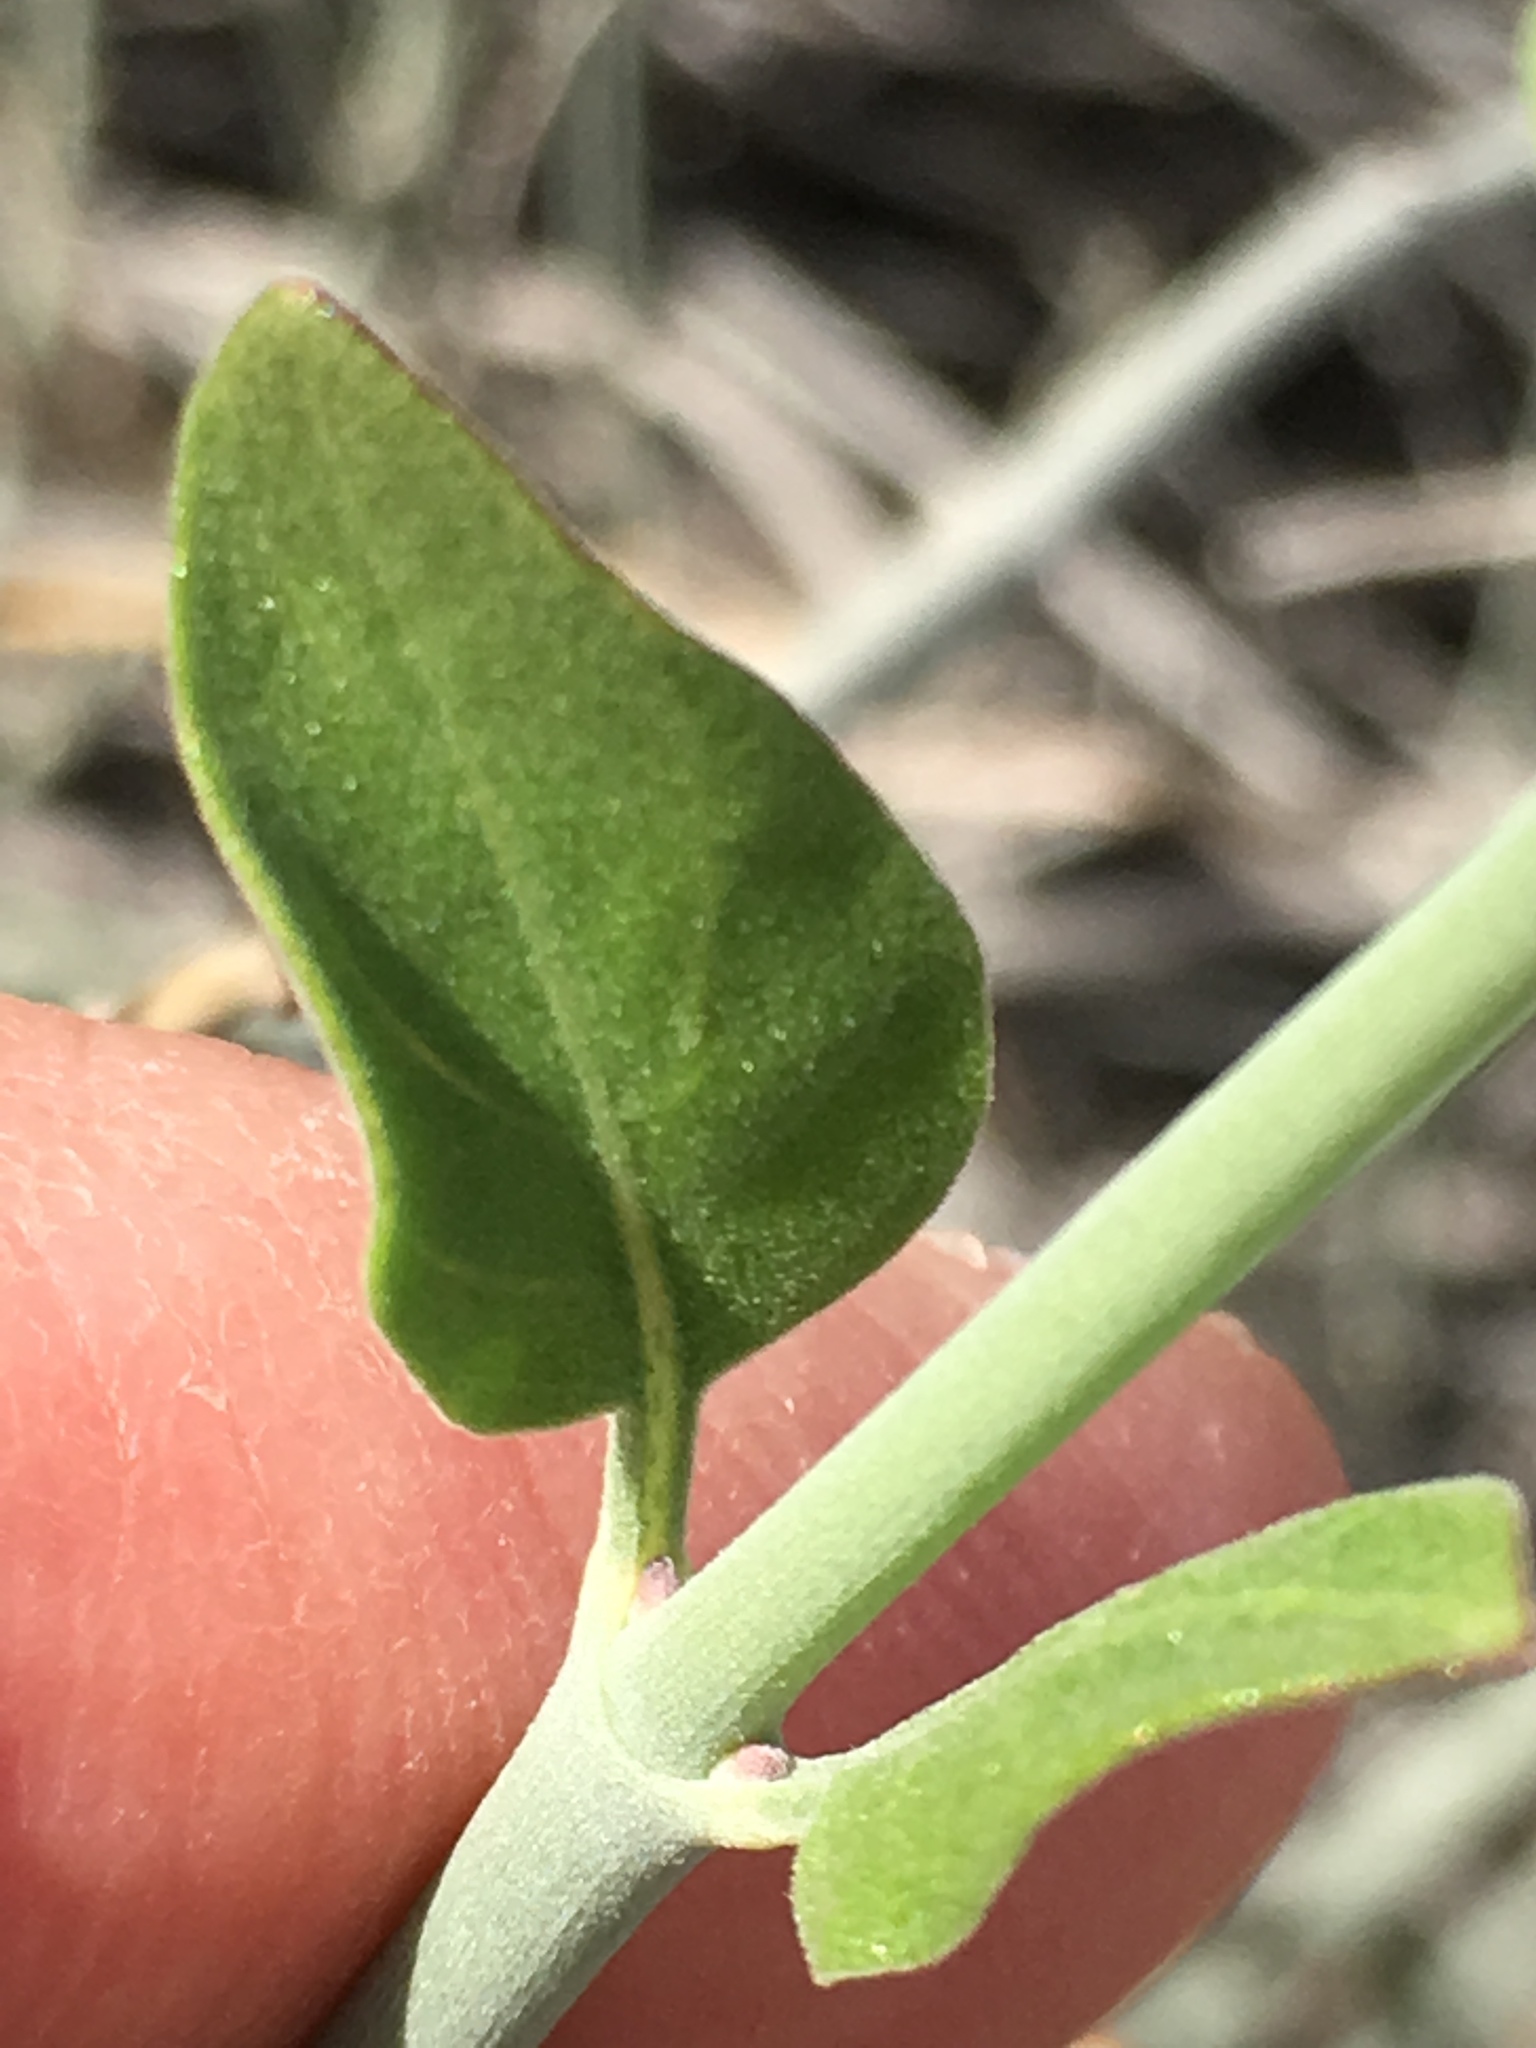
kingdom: Plantae
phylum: Tracheophyta
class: Magnoliopsida
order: Lamiales
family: Acanthaceae
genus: Justicia
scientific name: Justicia californica
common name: Chuparosa-honeysuckle
